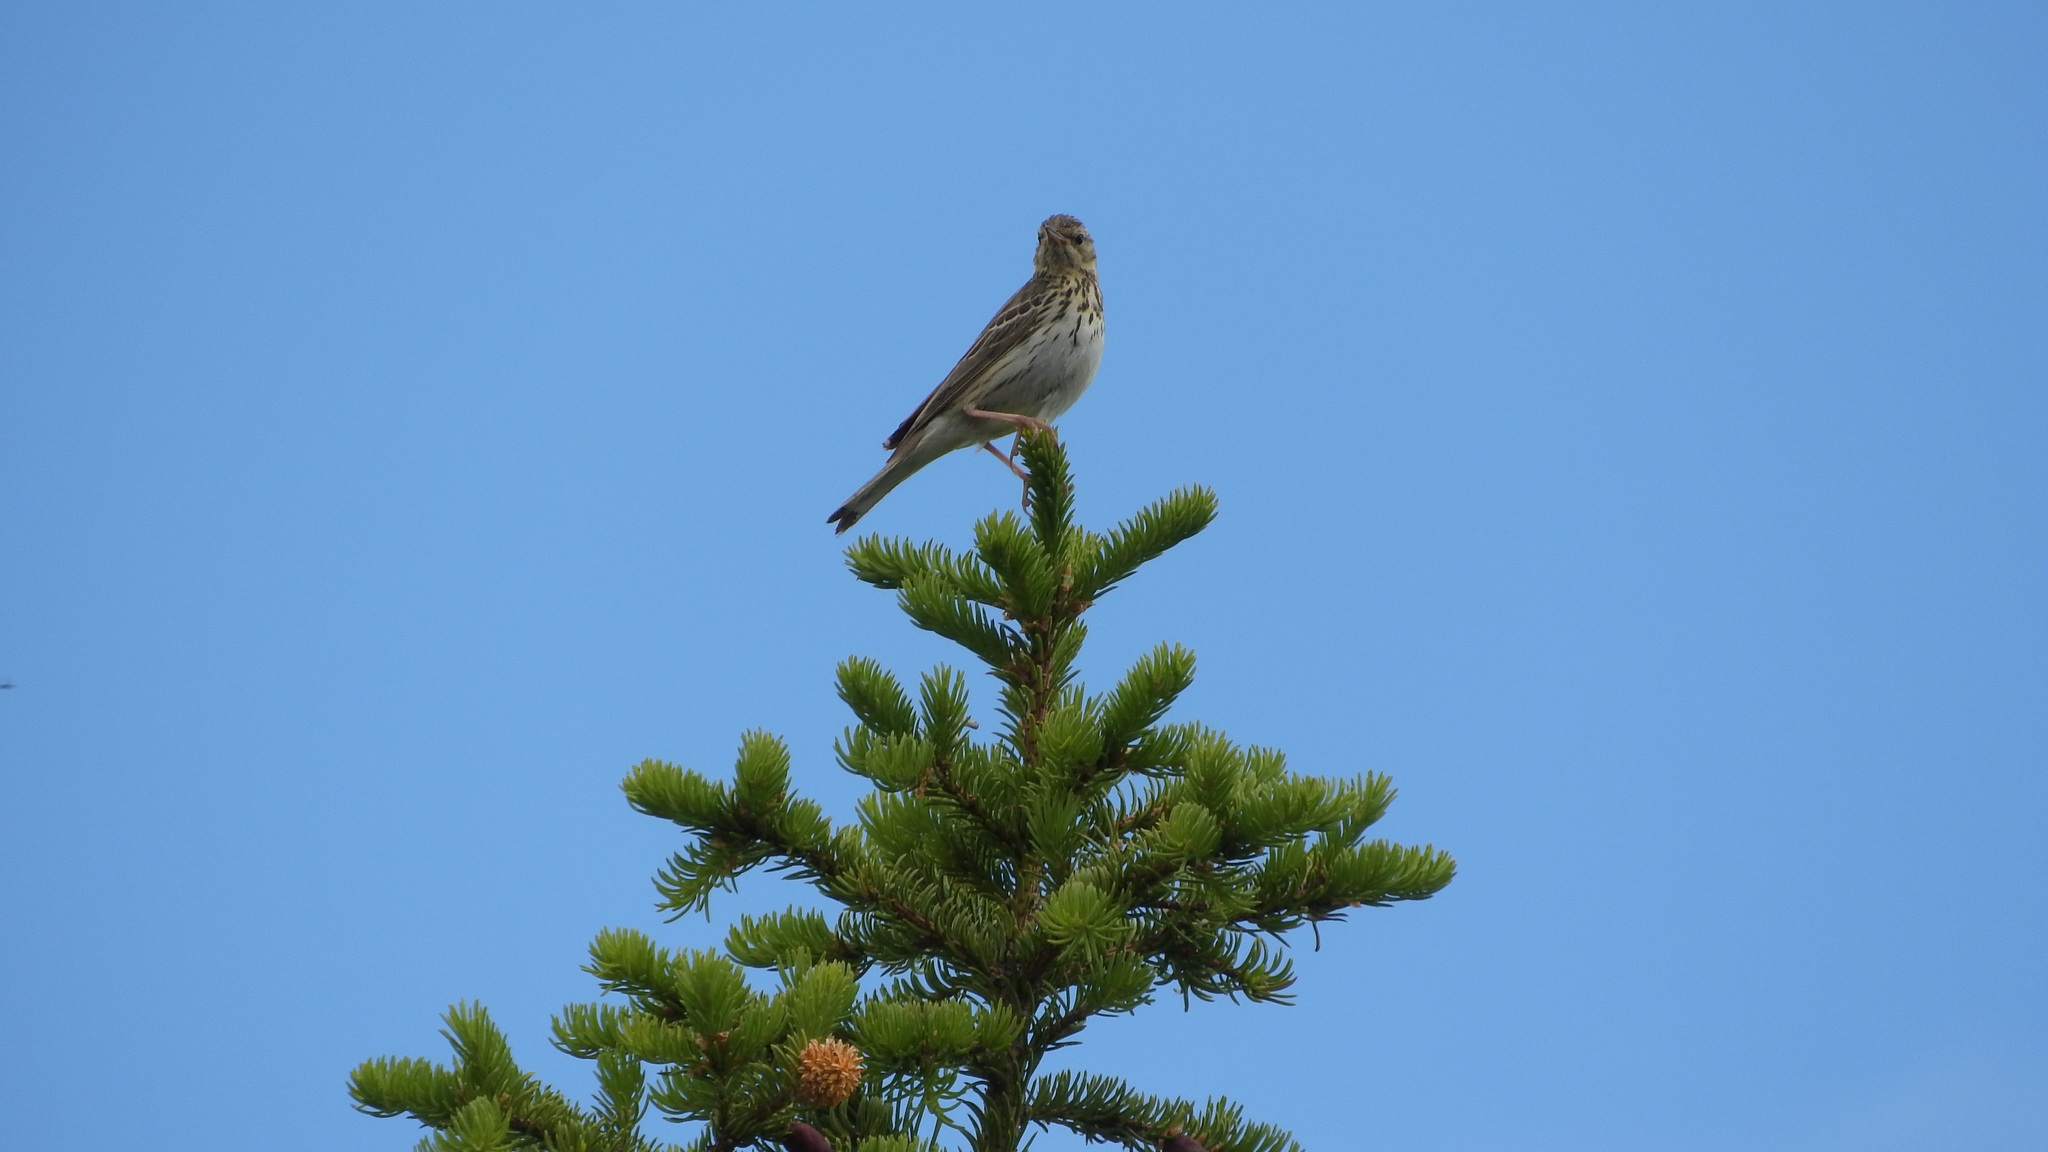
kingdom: Animalia
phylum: Chordata
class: Aves
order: Passeriformes
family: Motacillidae
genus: Anthus
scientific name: Anthus trivialis
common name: Tree pipit
